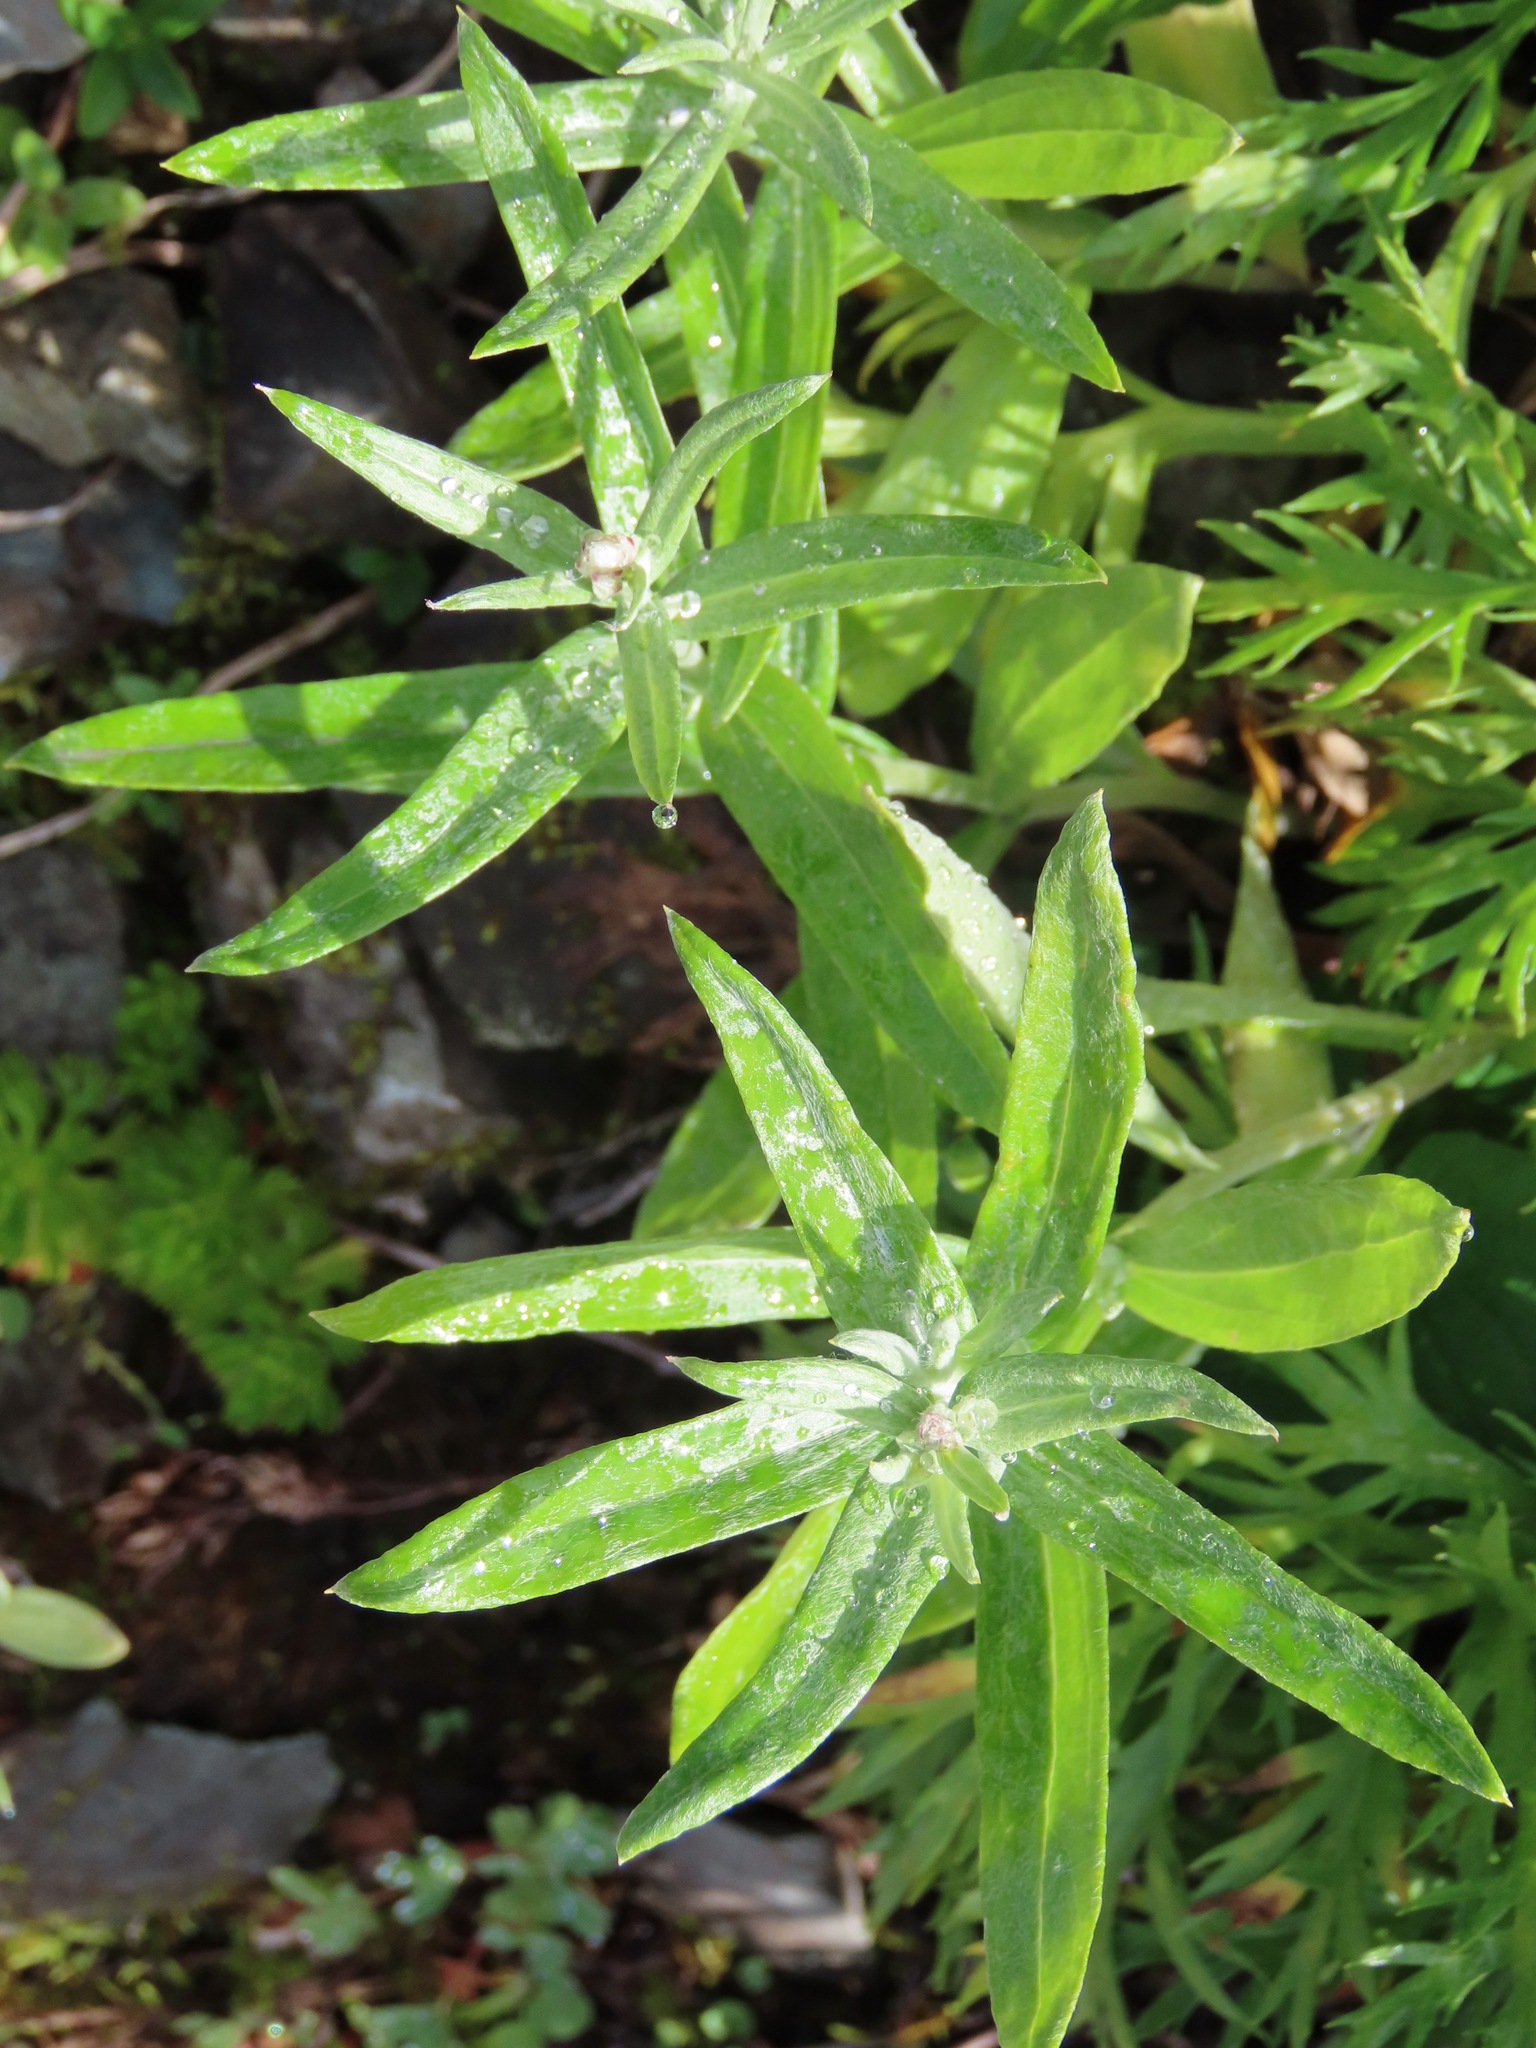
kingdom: Plantae
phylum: Tracheophyta
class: Magnoliopsida
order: Asterales
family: Asteraceae
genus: Anaphalis
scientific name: Anaphalis margaritacea
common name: Pearly everlasting
